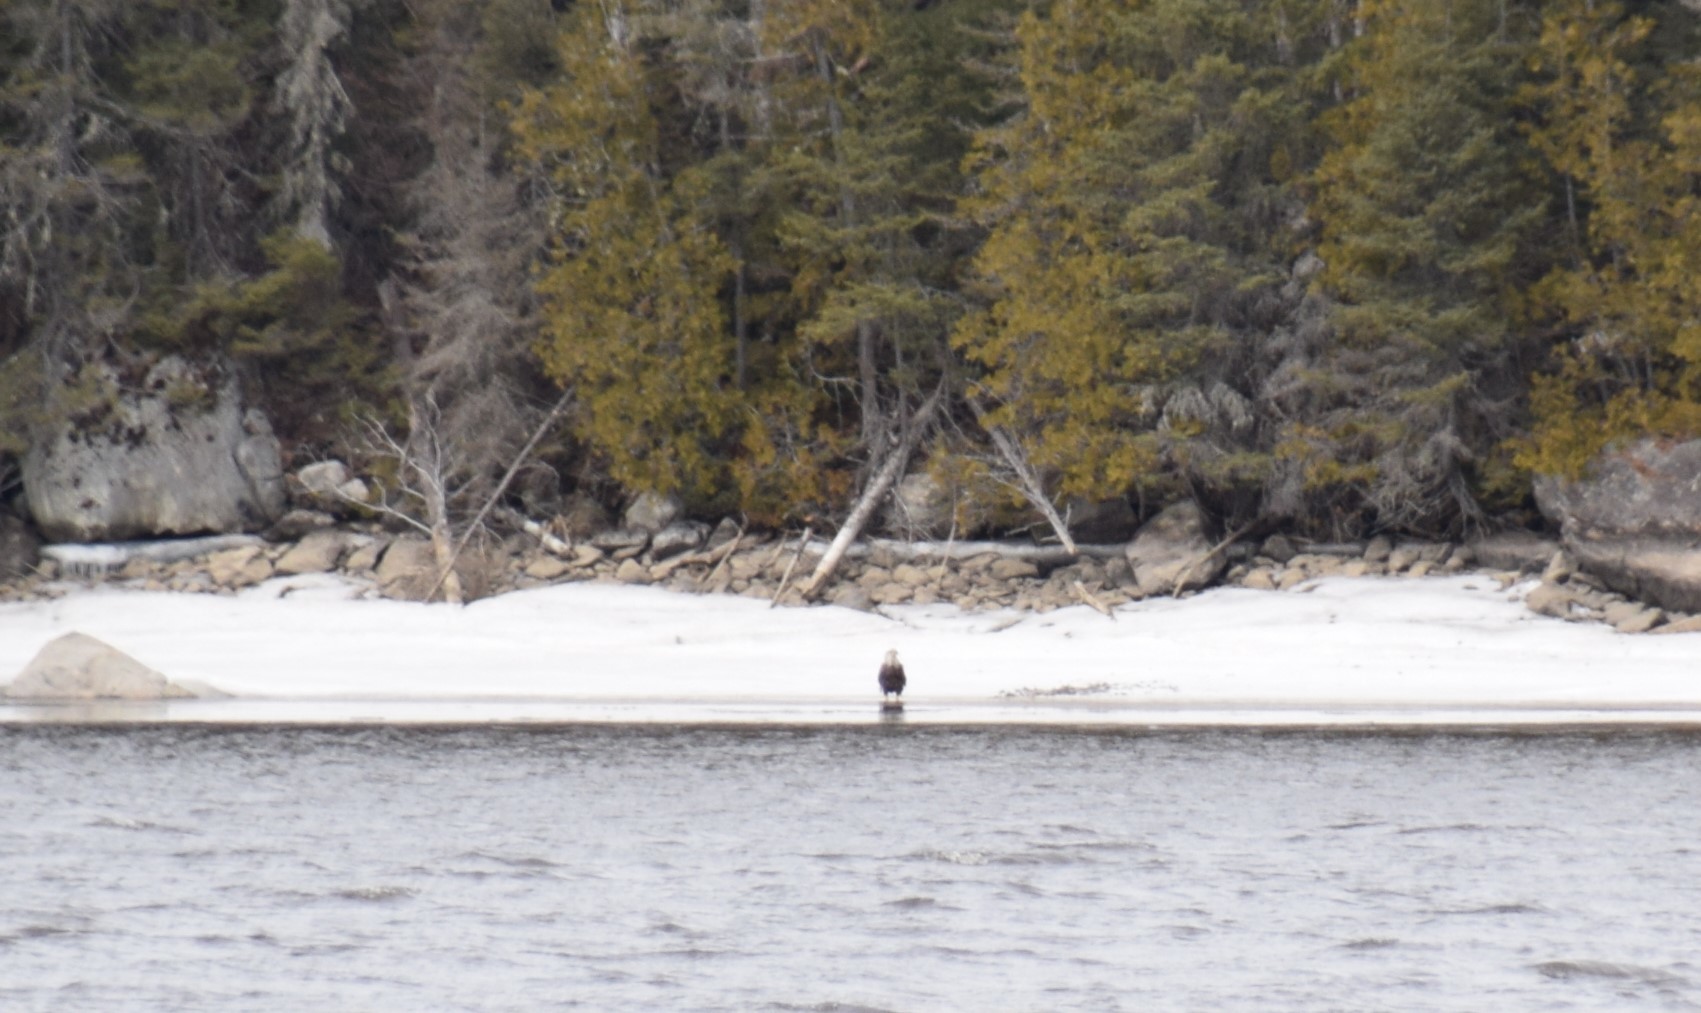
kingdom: Animalia
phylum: Chordata
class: Aves
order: Accipitriformes
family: Accipitridae
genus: Haliaeetus
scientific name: Haliaeetus leucocephalus
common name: Bald eagle
